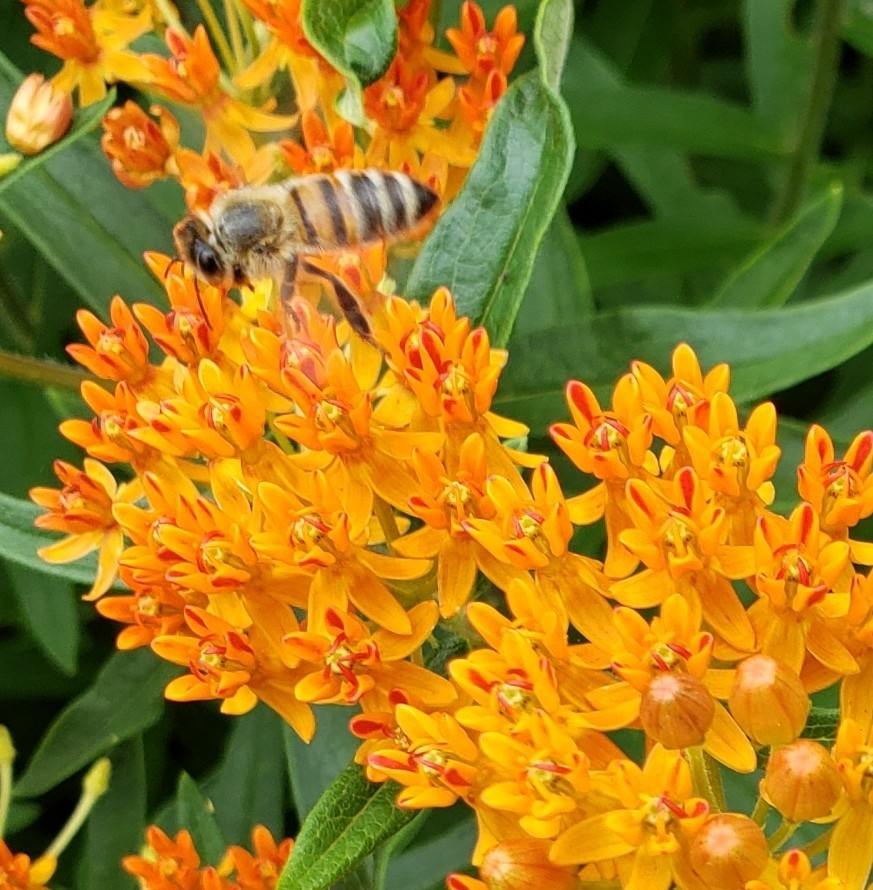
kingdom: Animalia
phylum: Arthropoda
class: Insecta
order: Hymenoptera
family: Apidae
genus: Apis
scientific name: Apis mellifera
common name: Honey bee
